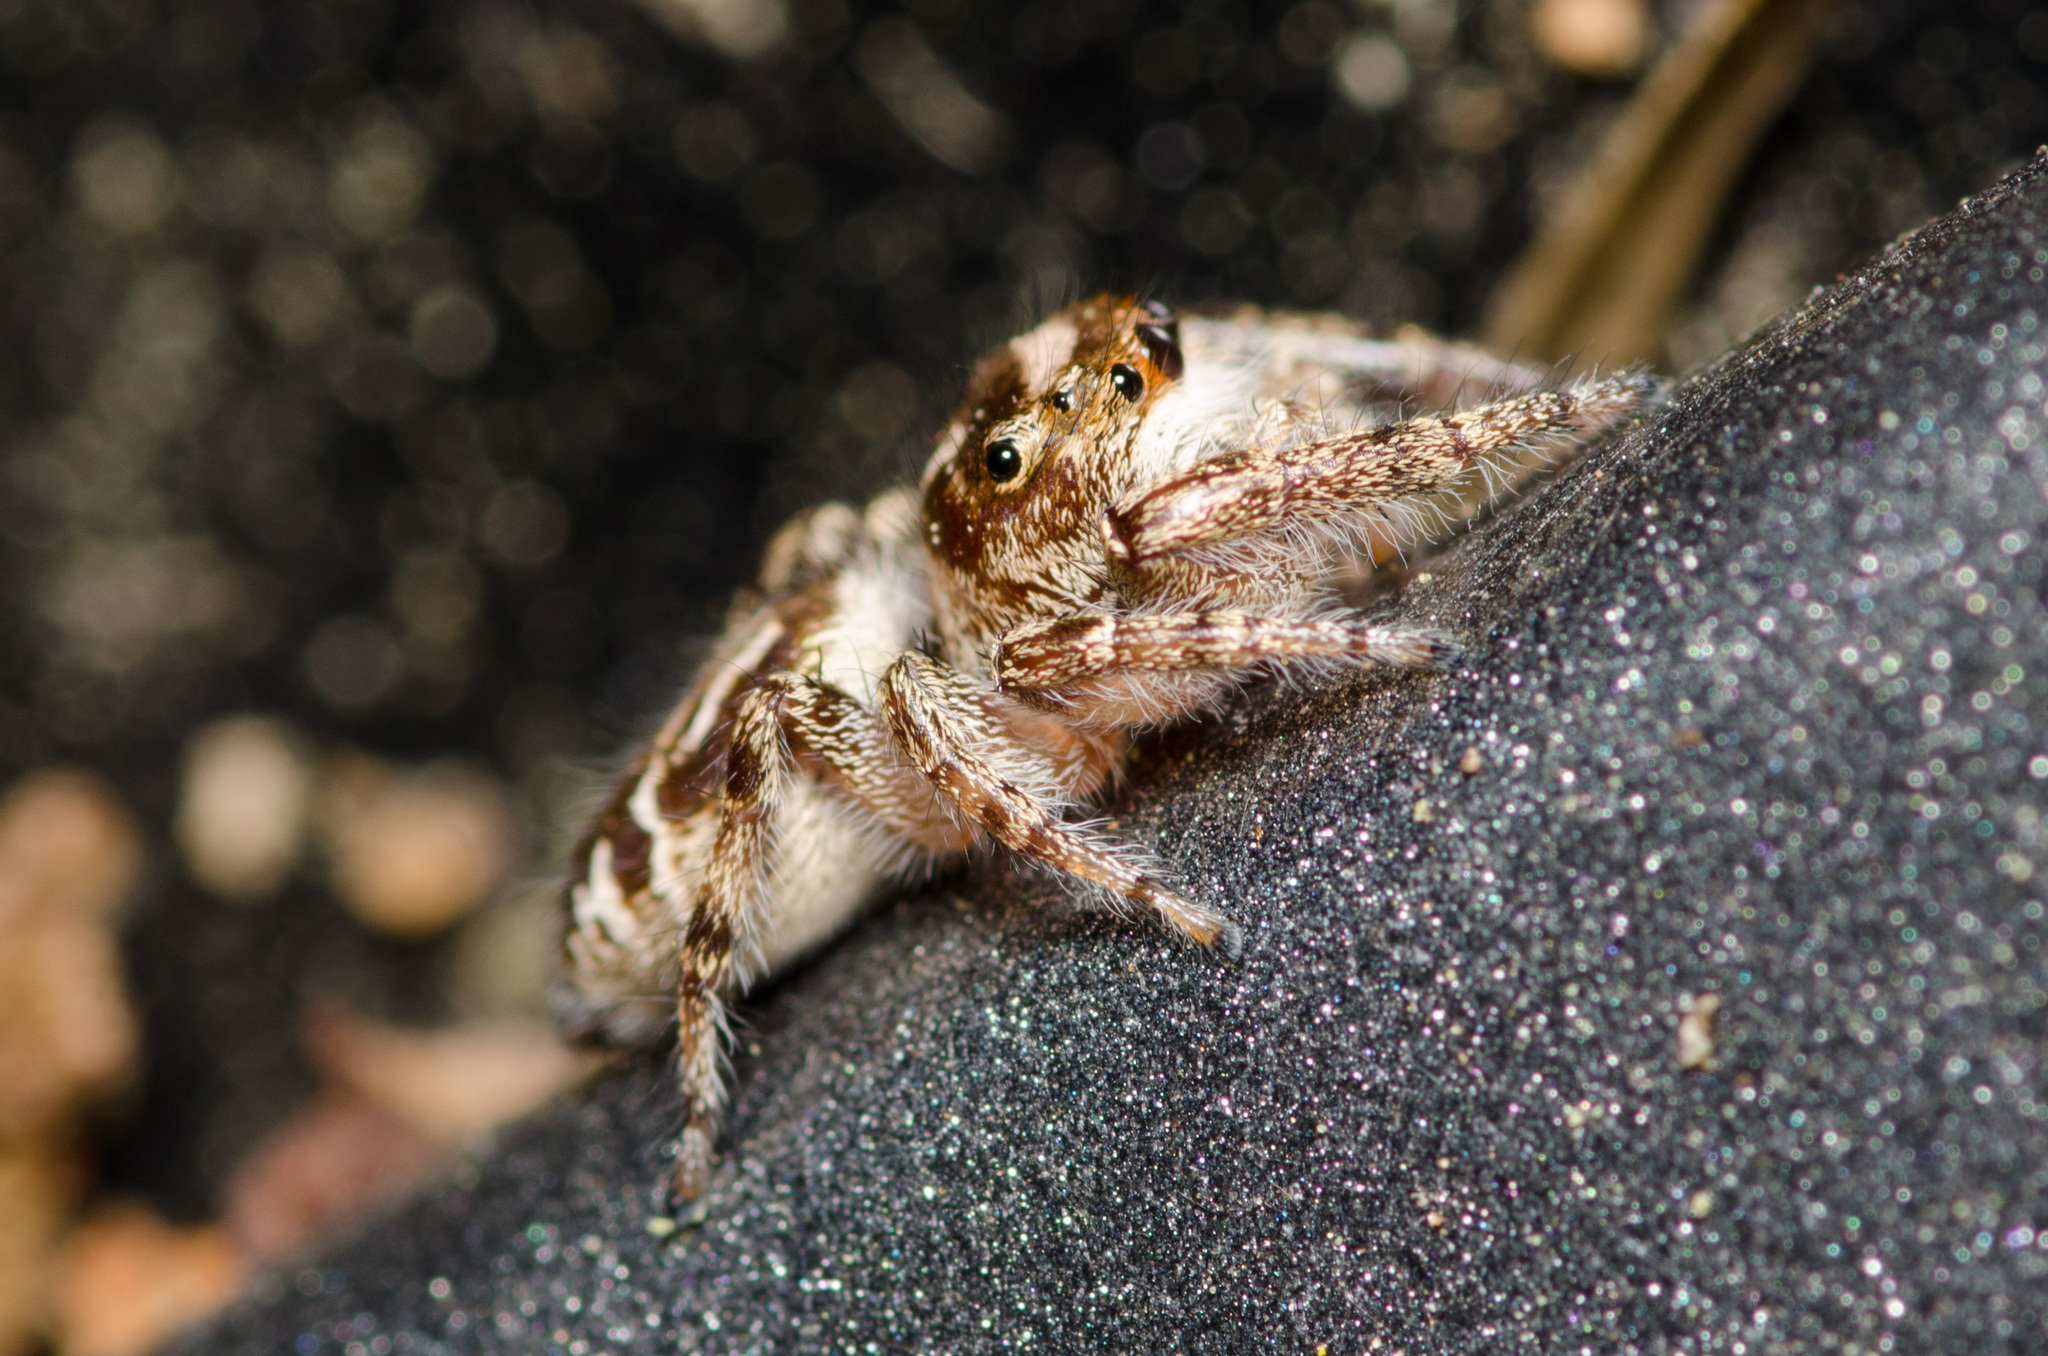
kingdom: Animalia
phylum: Arthropoda
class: Arachnida
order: Araneae
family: Salticidae
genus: Eris
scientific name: Eris militaris
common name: Bronze jumper
